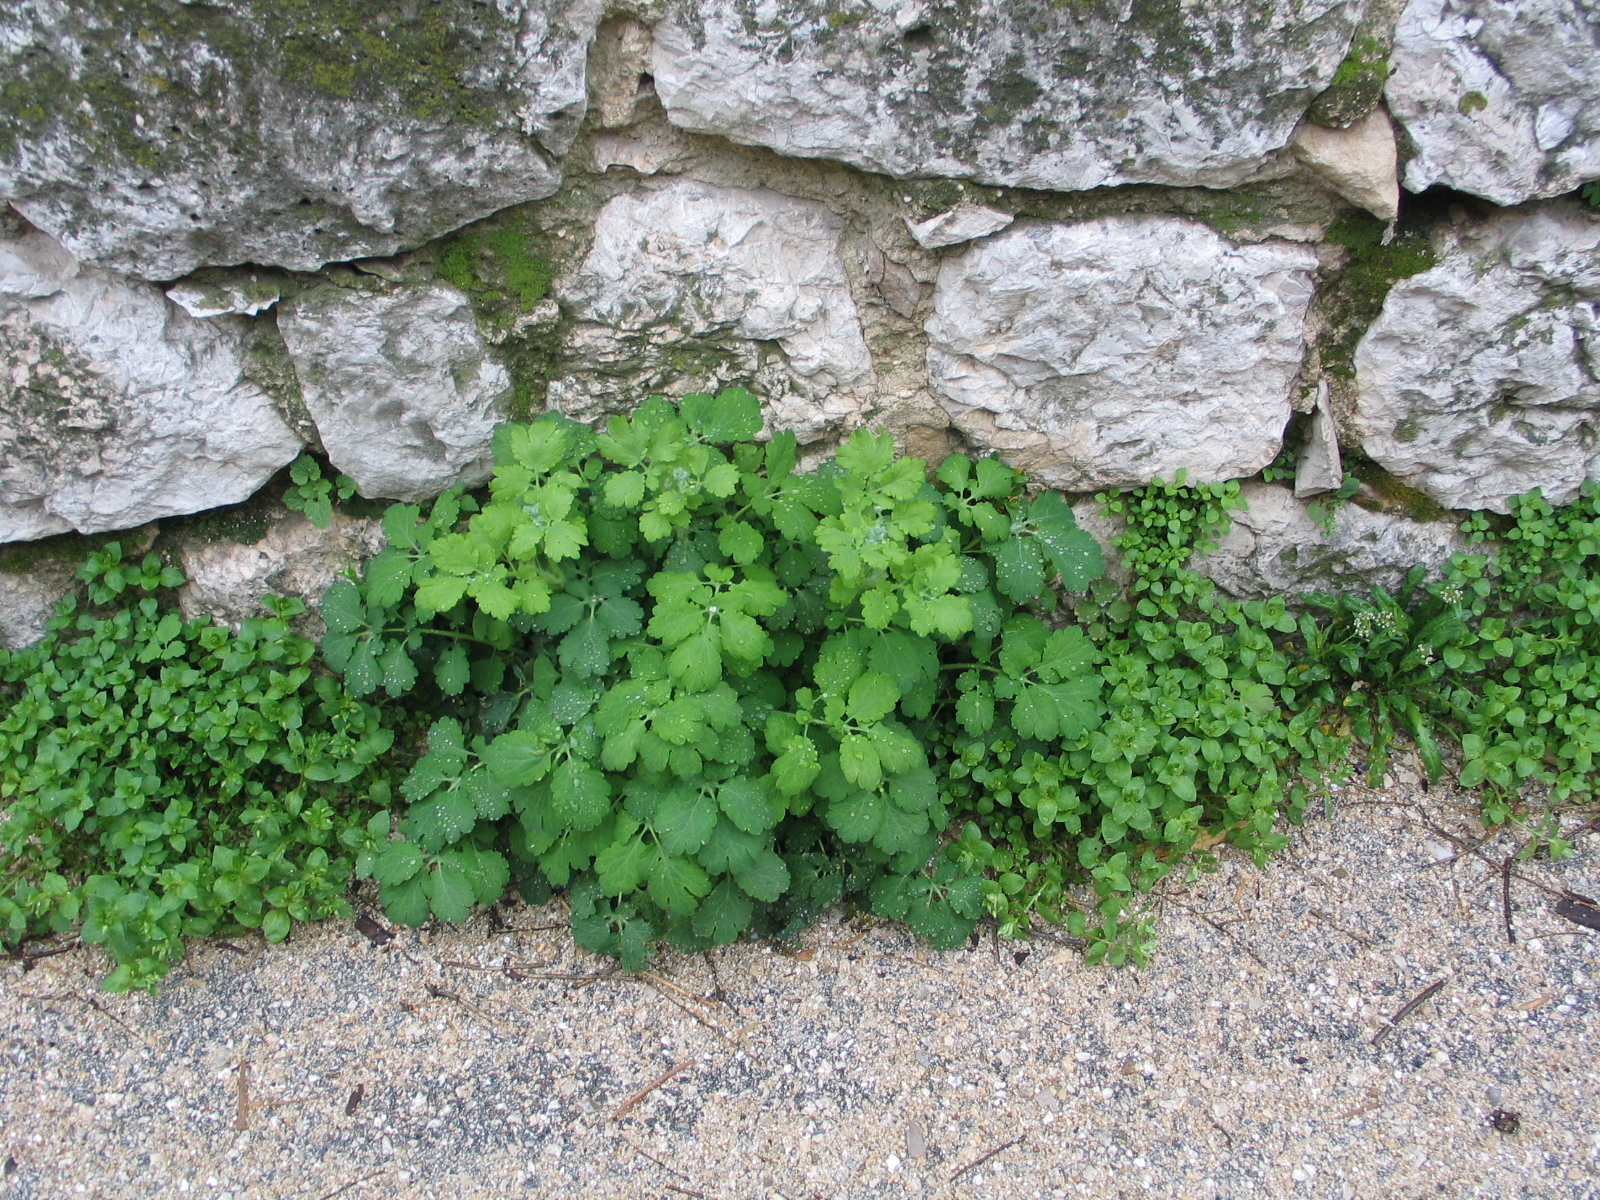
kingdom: Plantae
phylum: Tracheophyta
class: Magnoliopsida
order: Ranunculales
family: Papaveraceae
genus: Chelidonium
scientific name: Chelidonium majus
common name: Greater celandine
